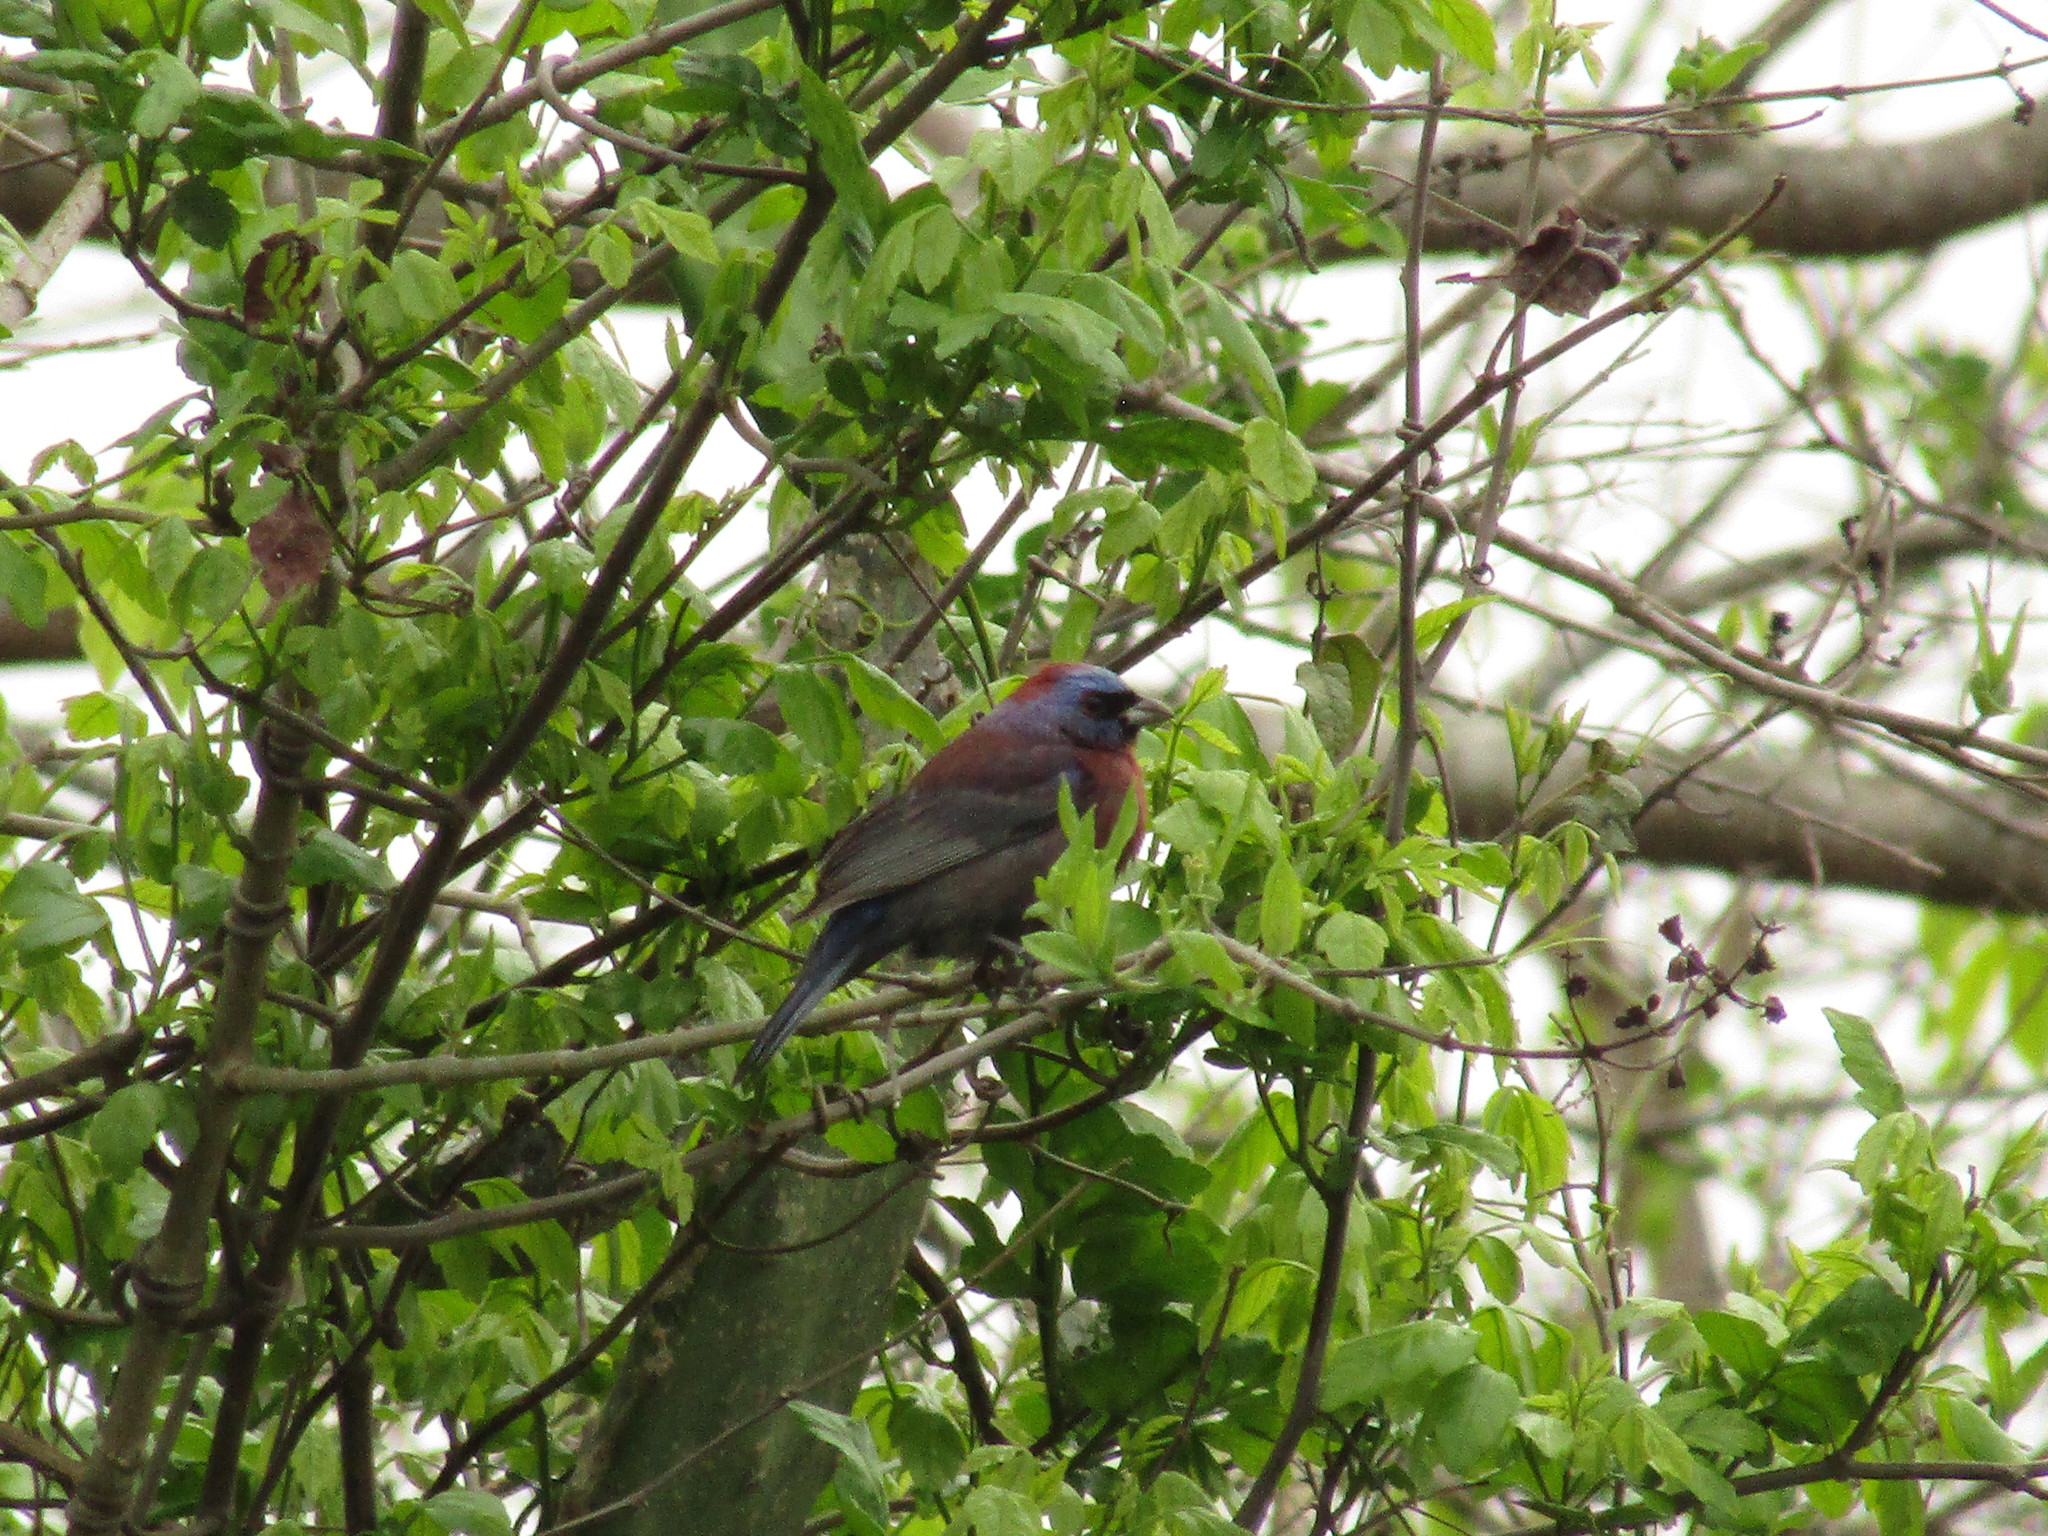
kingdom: Animalia
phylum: Chordata
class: Aves
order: Passeriformes
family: Cardinalidae
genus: Passerina
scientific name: Passerina versicolor
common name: Varied bunting
